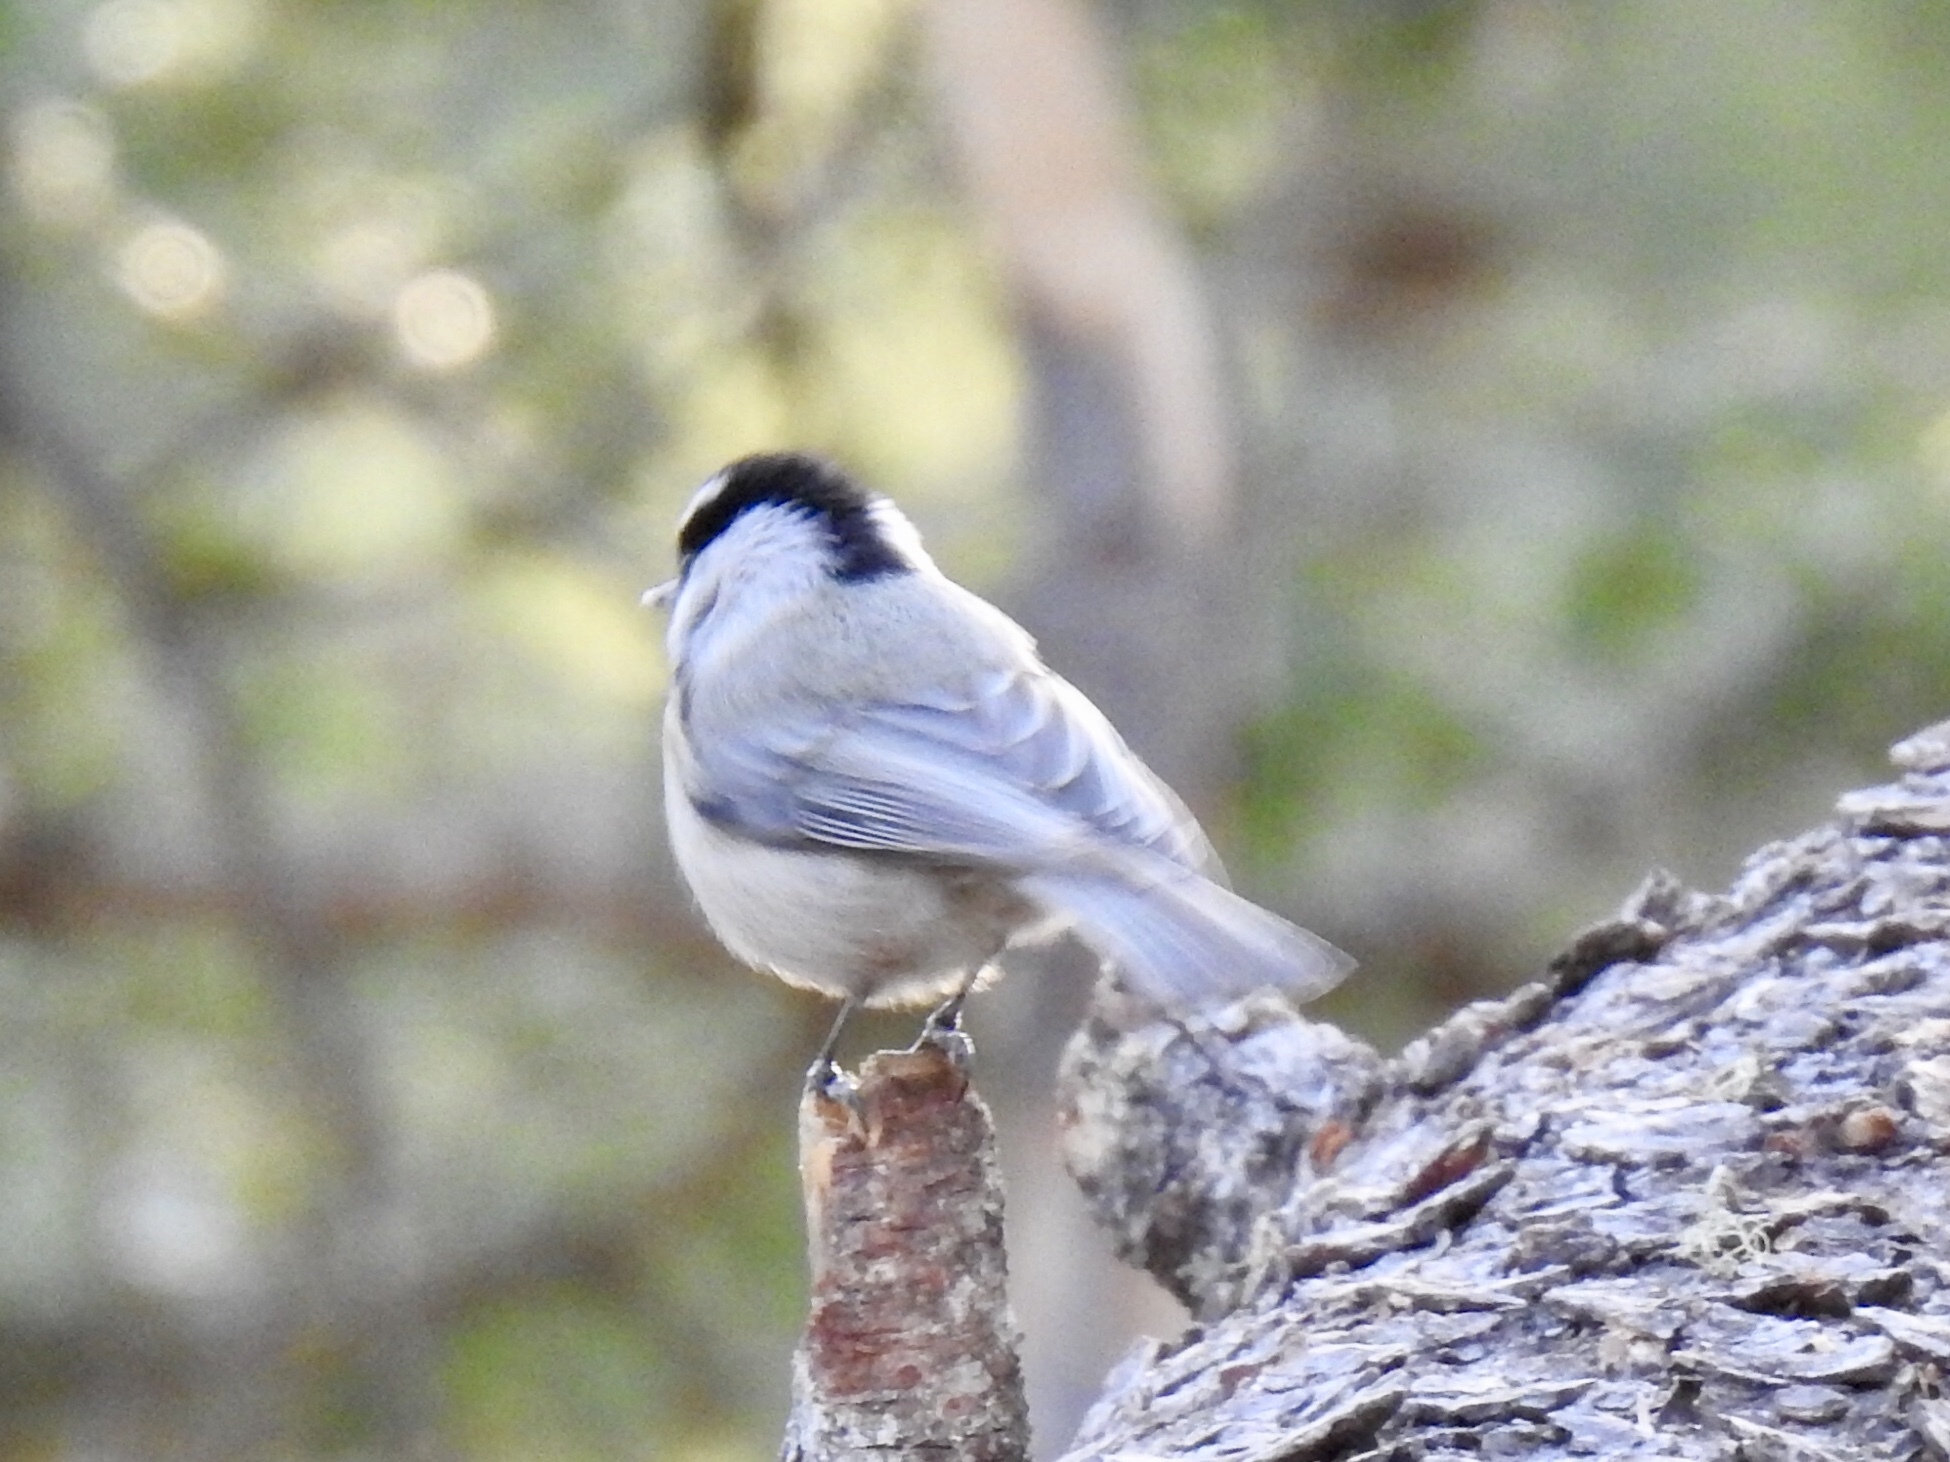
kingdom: Animalia
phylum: Chordata
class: Aves
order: Passeriformes
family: Paridae
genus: Poecile
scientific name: Poecile gambeli
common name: Mountain chickadee
